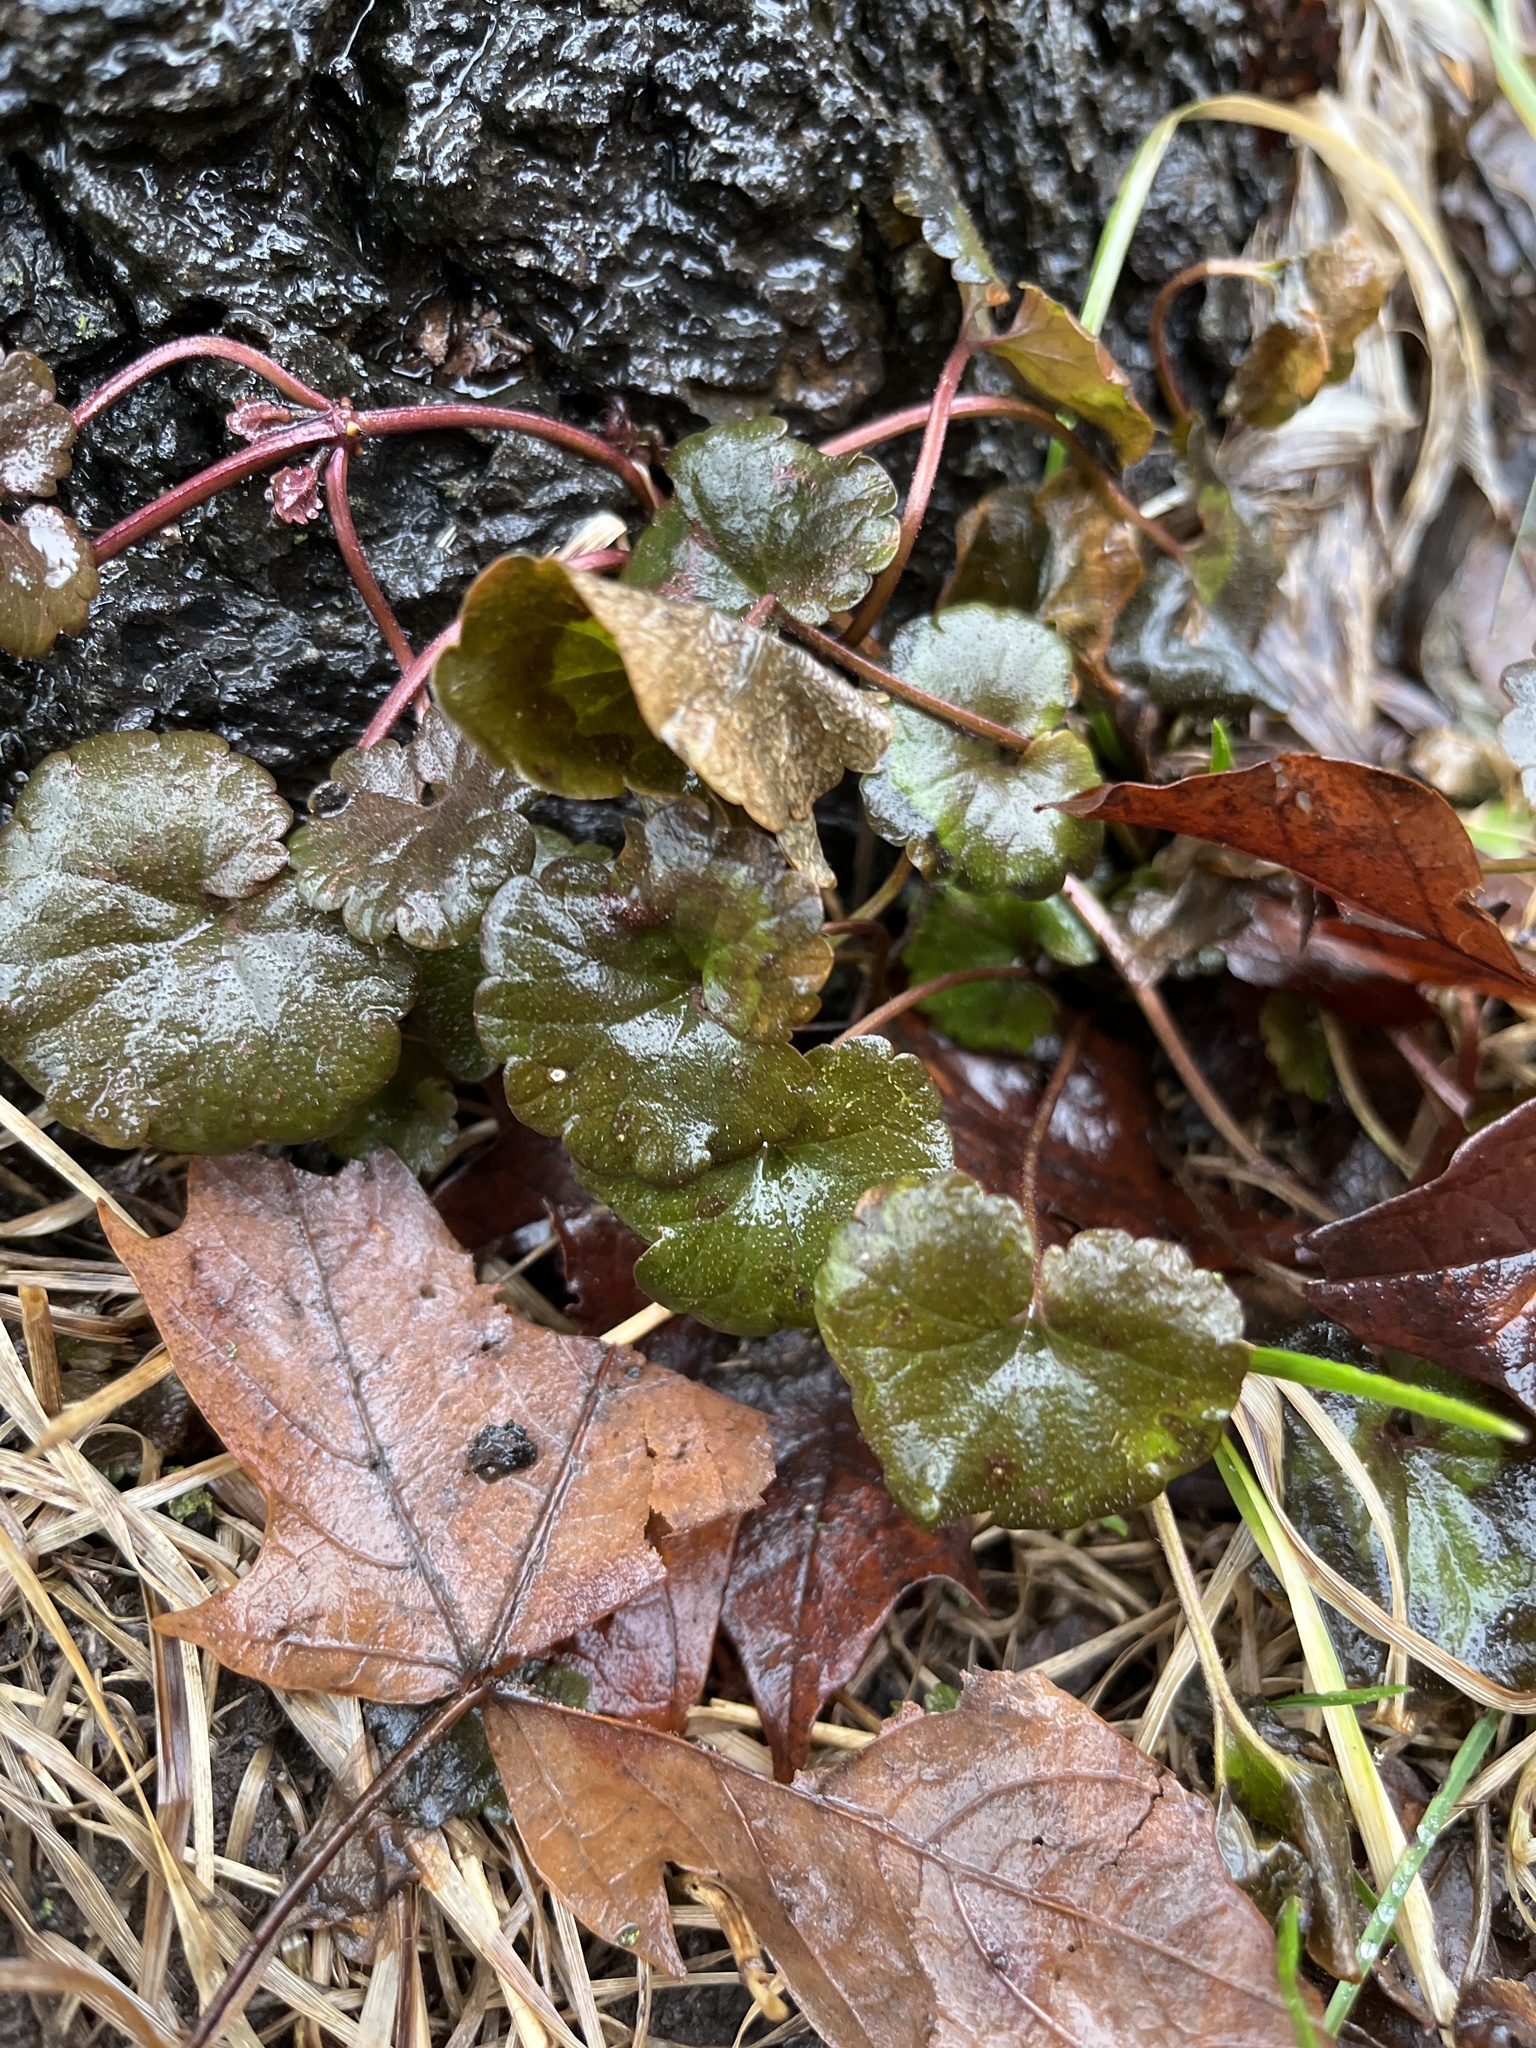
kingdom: Plantae
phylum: Tracheophyta
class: Magnoliopsida
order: Lamiales
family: Lamiaceae
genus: Glechoma
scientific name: Glechoma hederacea
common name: Ground ivy
